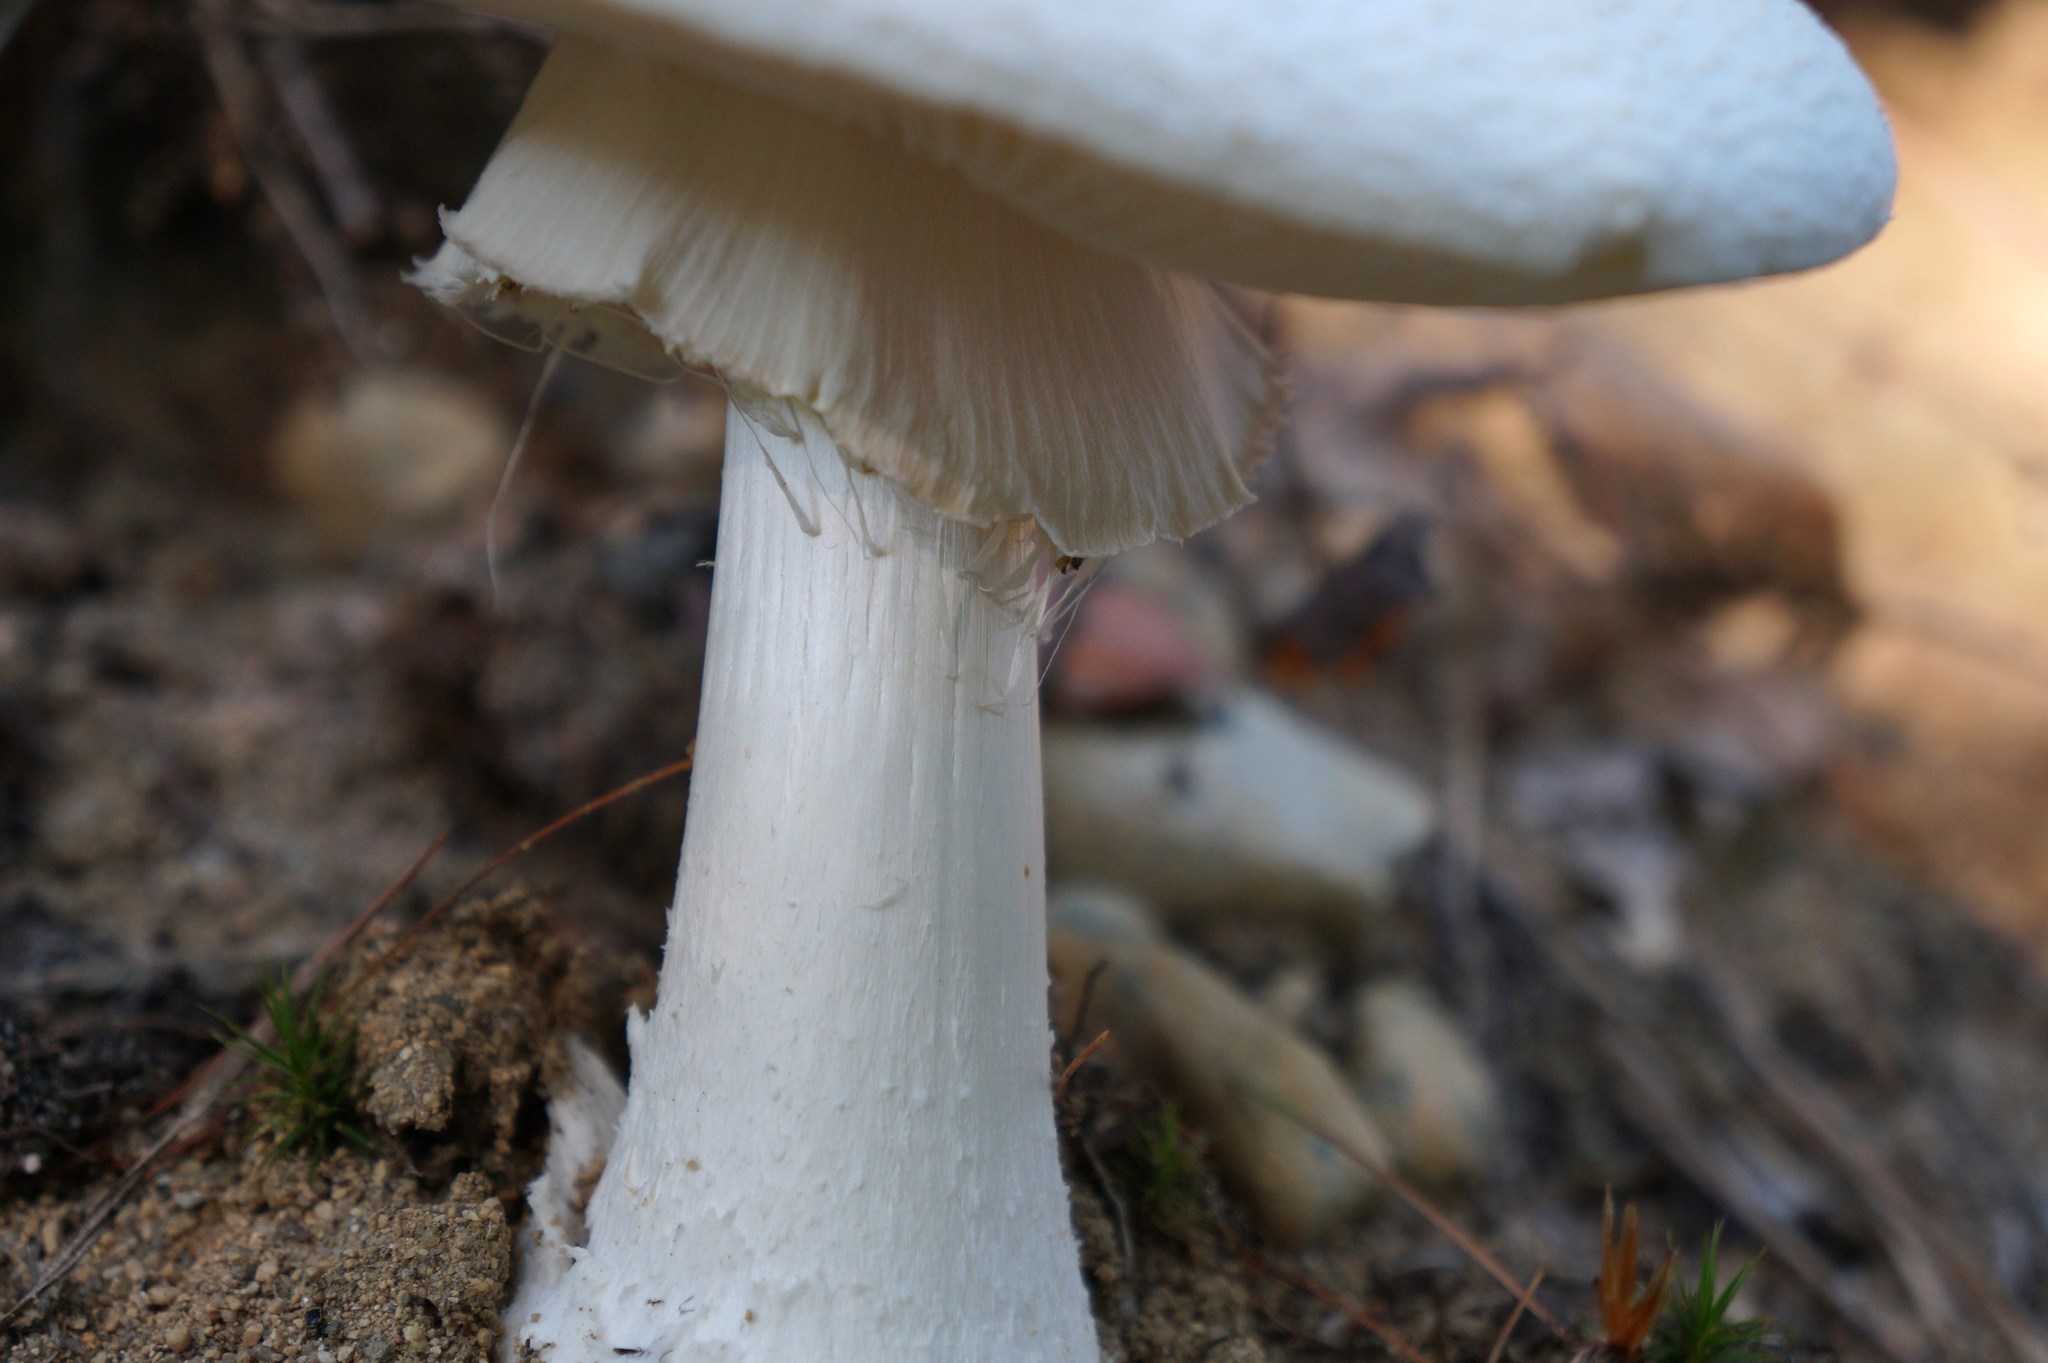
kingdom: Fungi
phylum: Basidiomycota
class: Agaricomycetes
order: Agaricales
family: Amanitaceae
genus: Amanita
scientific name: Amanita cokeri
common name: Coker's amanita
